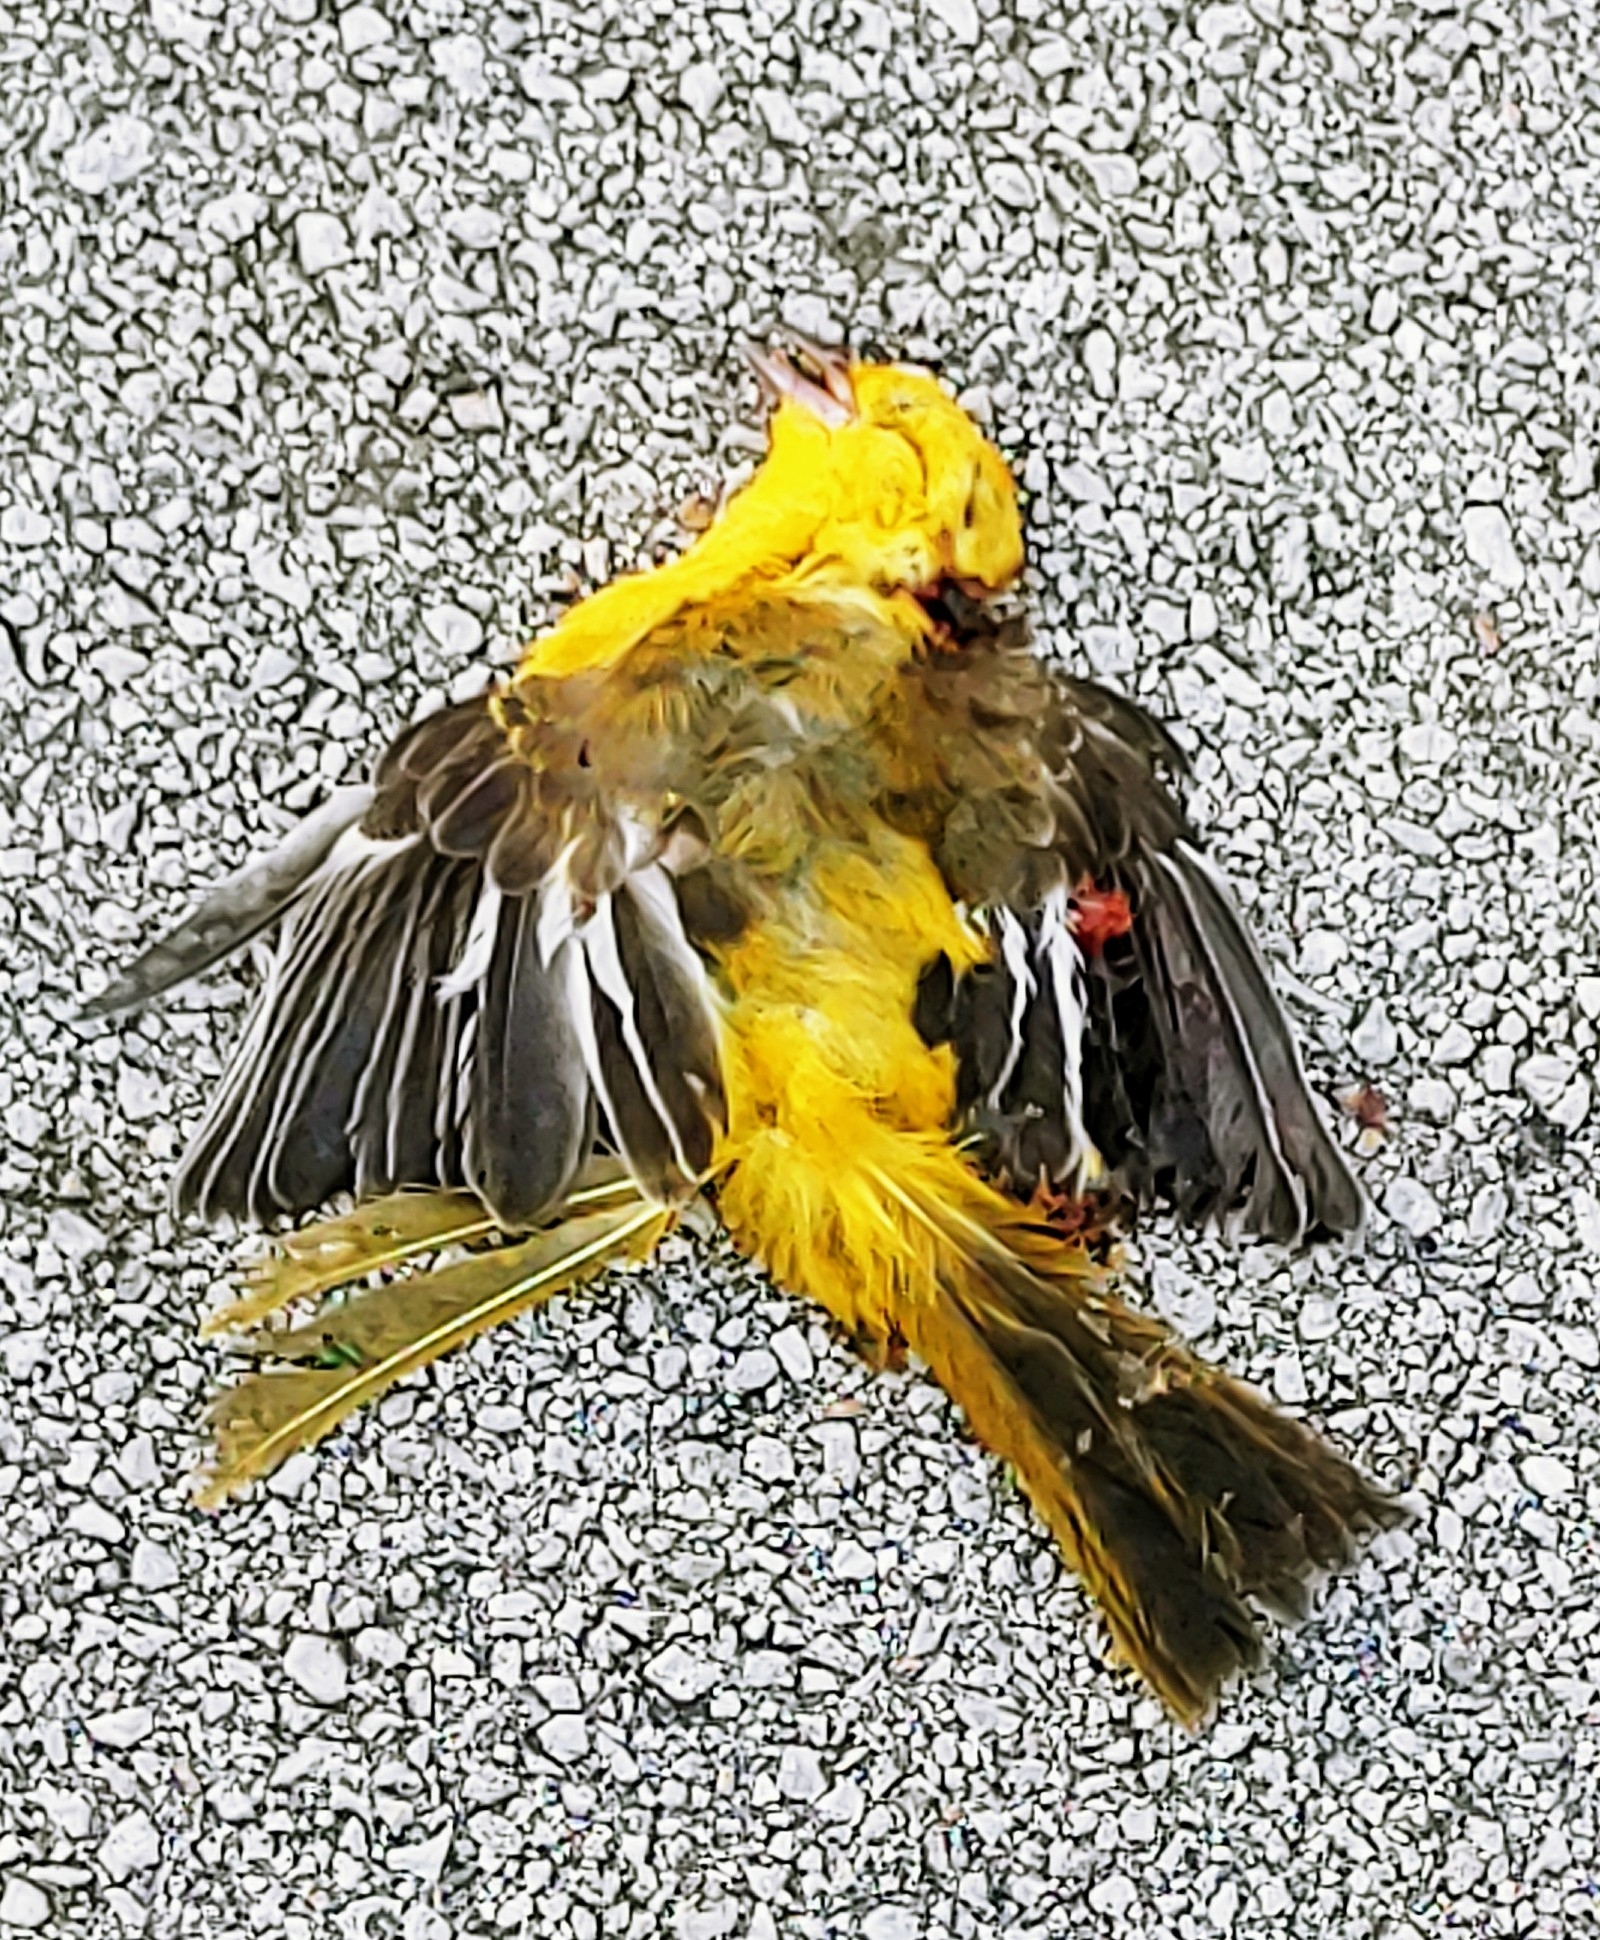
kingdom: Animalia
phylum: Chordata
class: Aves
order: Passeriformes
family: Icteridae
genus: Icterus
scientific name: Icterus pectoralis
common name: Spot-breasted oriole
